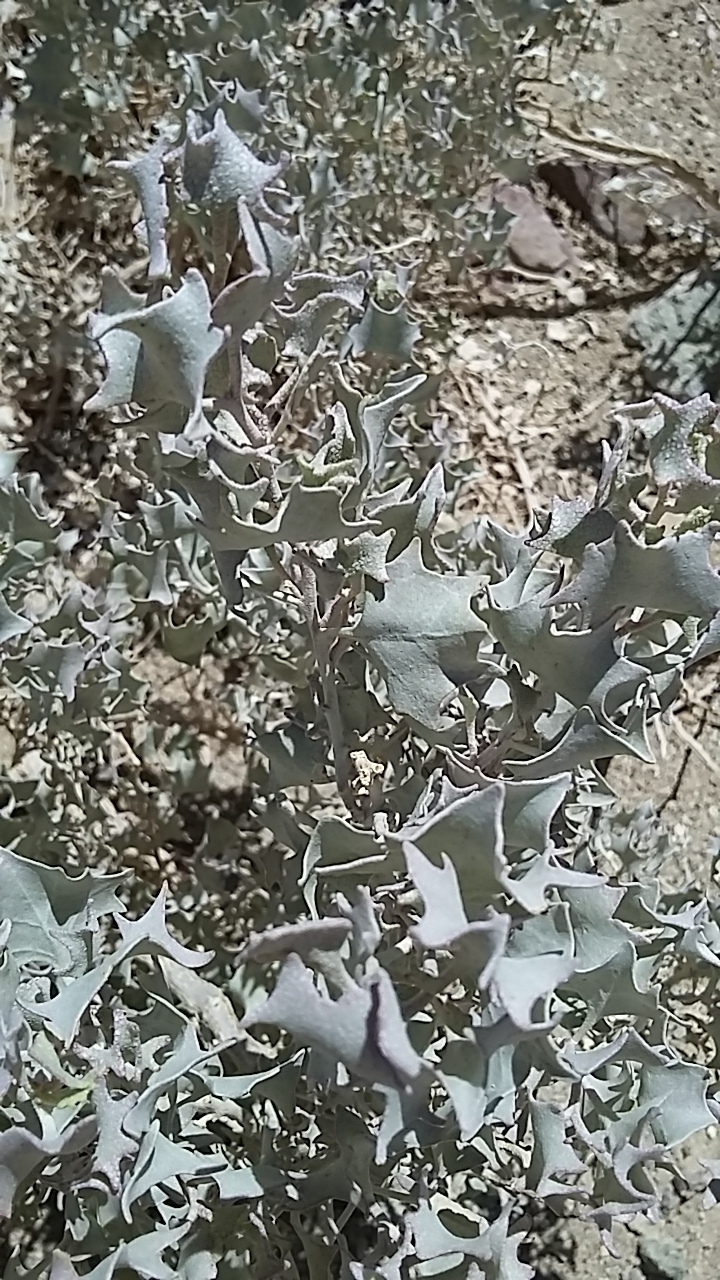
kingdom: Plantae
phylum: Tracheophyta
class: Magnoliopsida
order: Caryophyllales
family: Amaranthaceae
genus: Atriplex
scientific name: Atriplex hymenelytra
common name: Desert-holly
